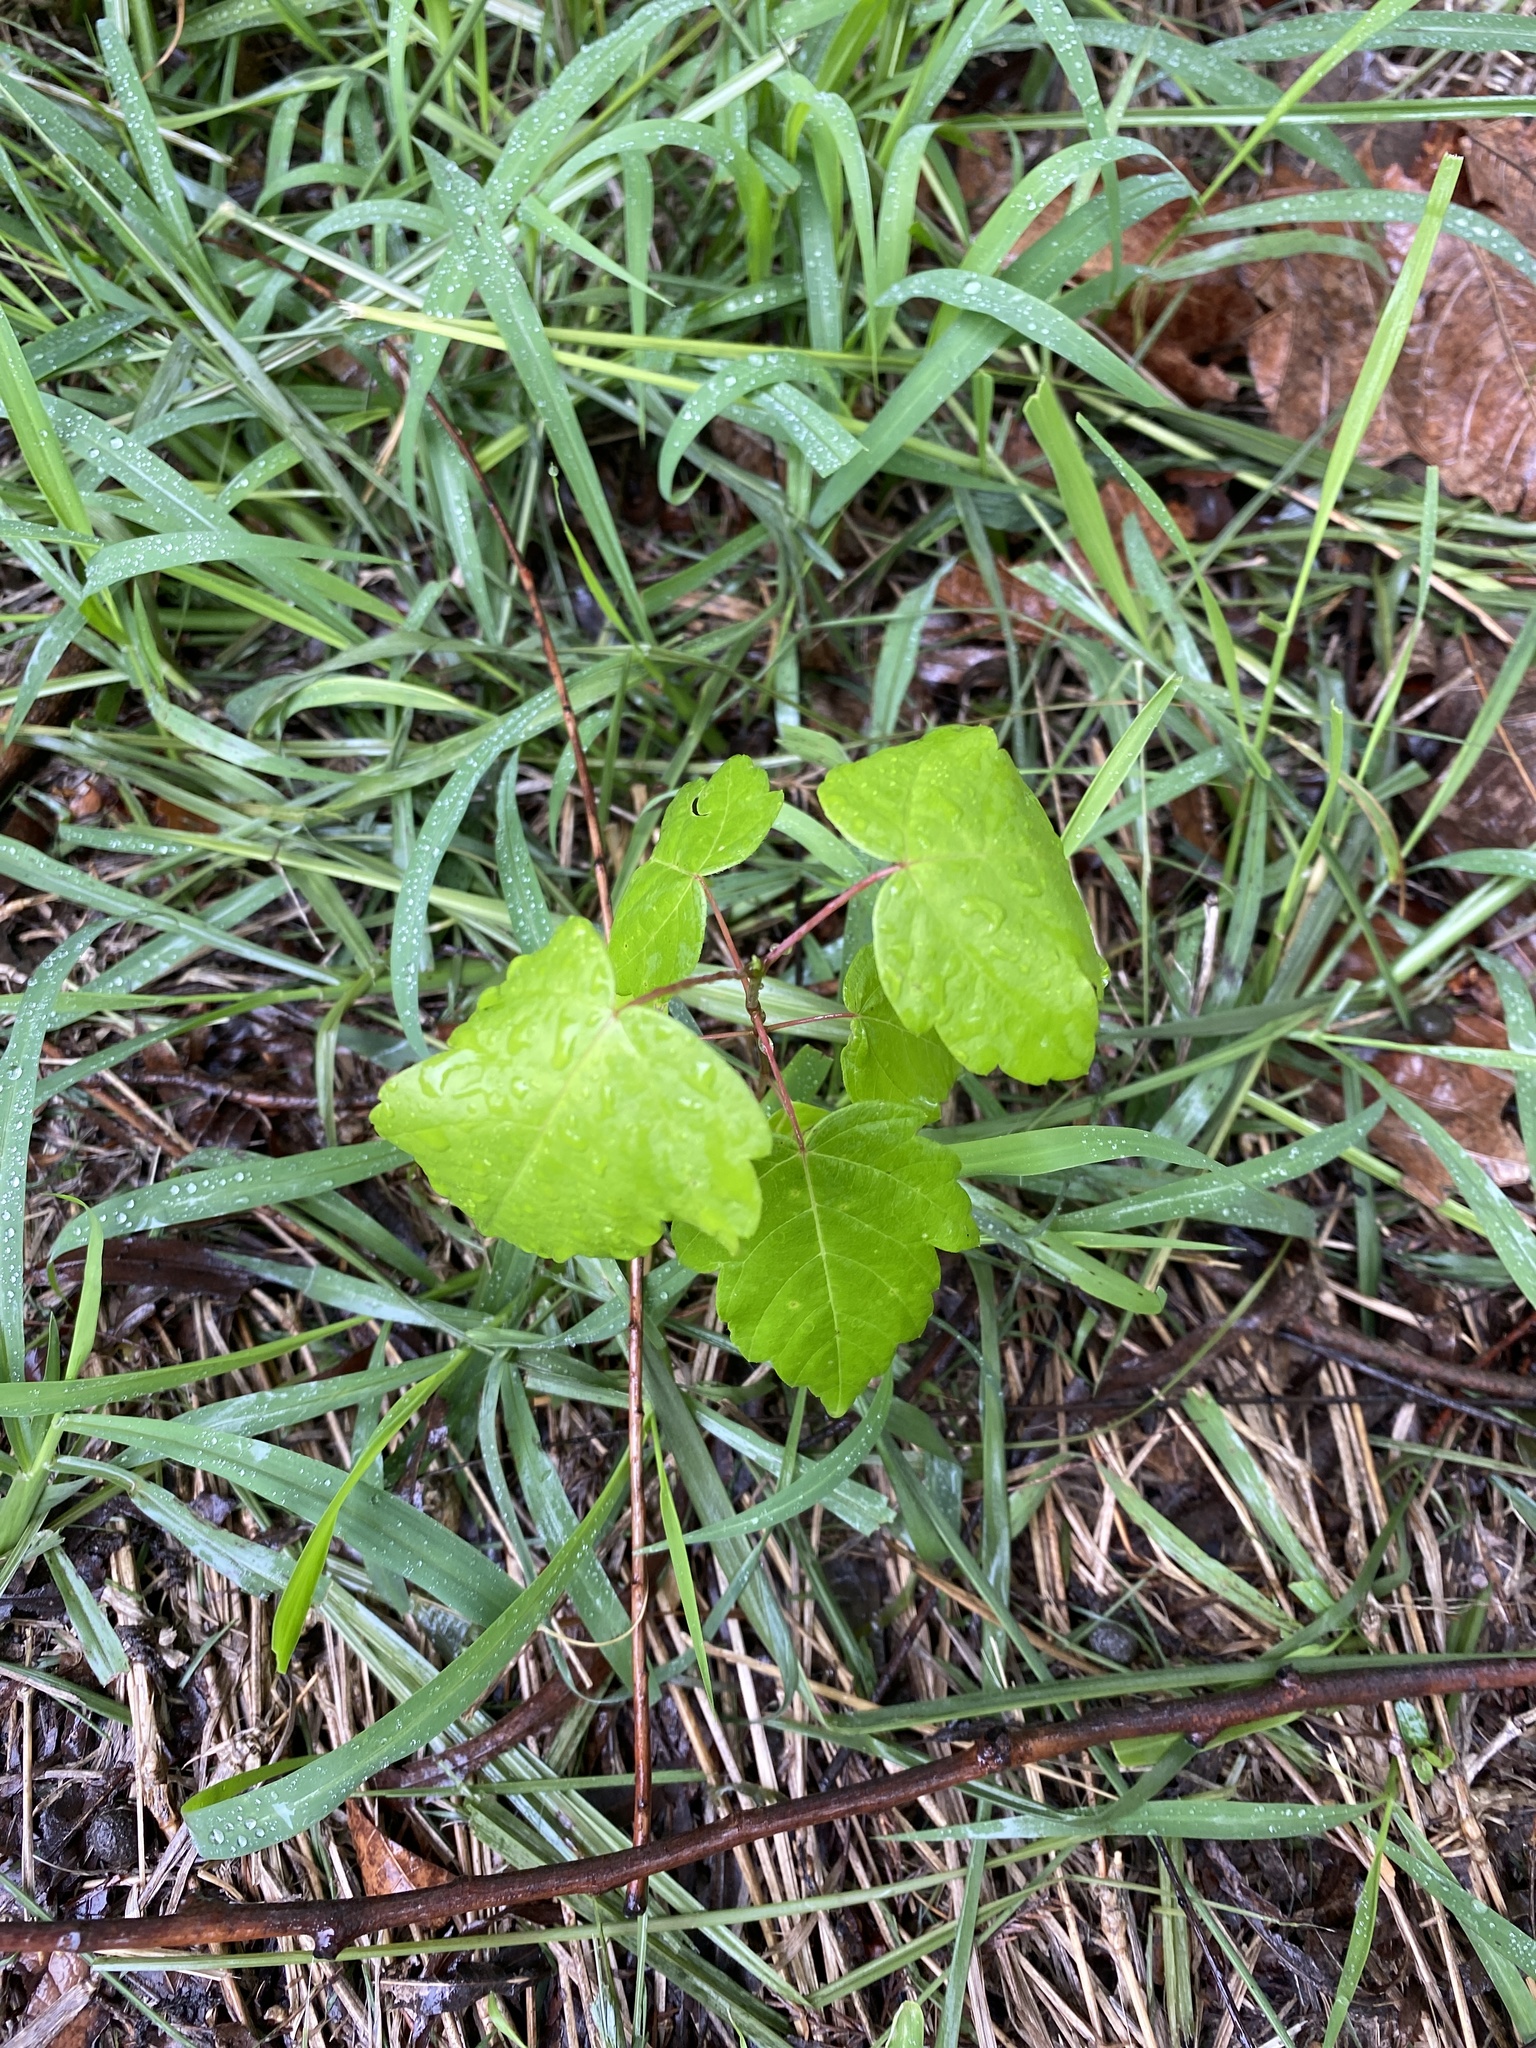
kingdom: Plantae
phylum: Tracheophyta
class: Magnoliopsida
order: Sapindales
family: Anacardiaceae
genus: Toxicodendron
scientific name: Toxicodendron radicans
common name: Poison ivy
